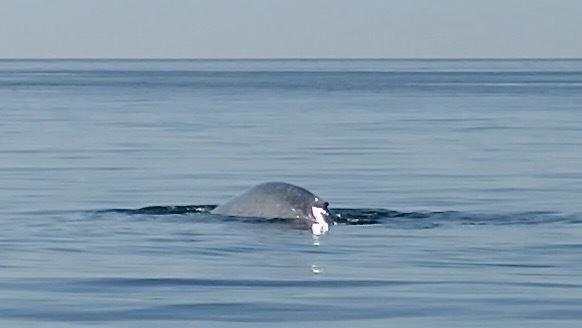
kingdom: Animalia
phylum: Chordata
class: Mammalia
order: Cetacea
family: Balaenopteridae
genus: Balaenoptera
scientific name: Balaenoptera musculus
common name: Blue whale
